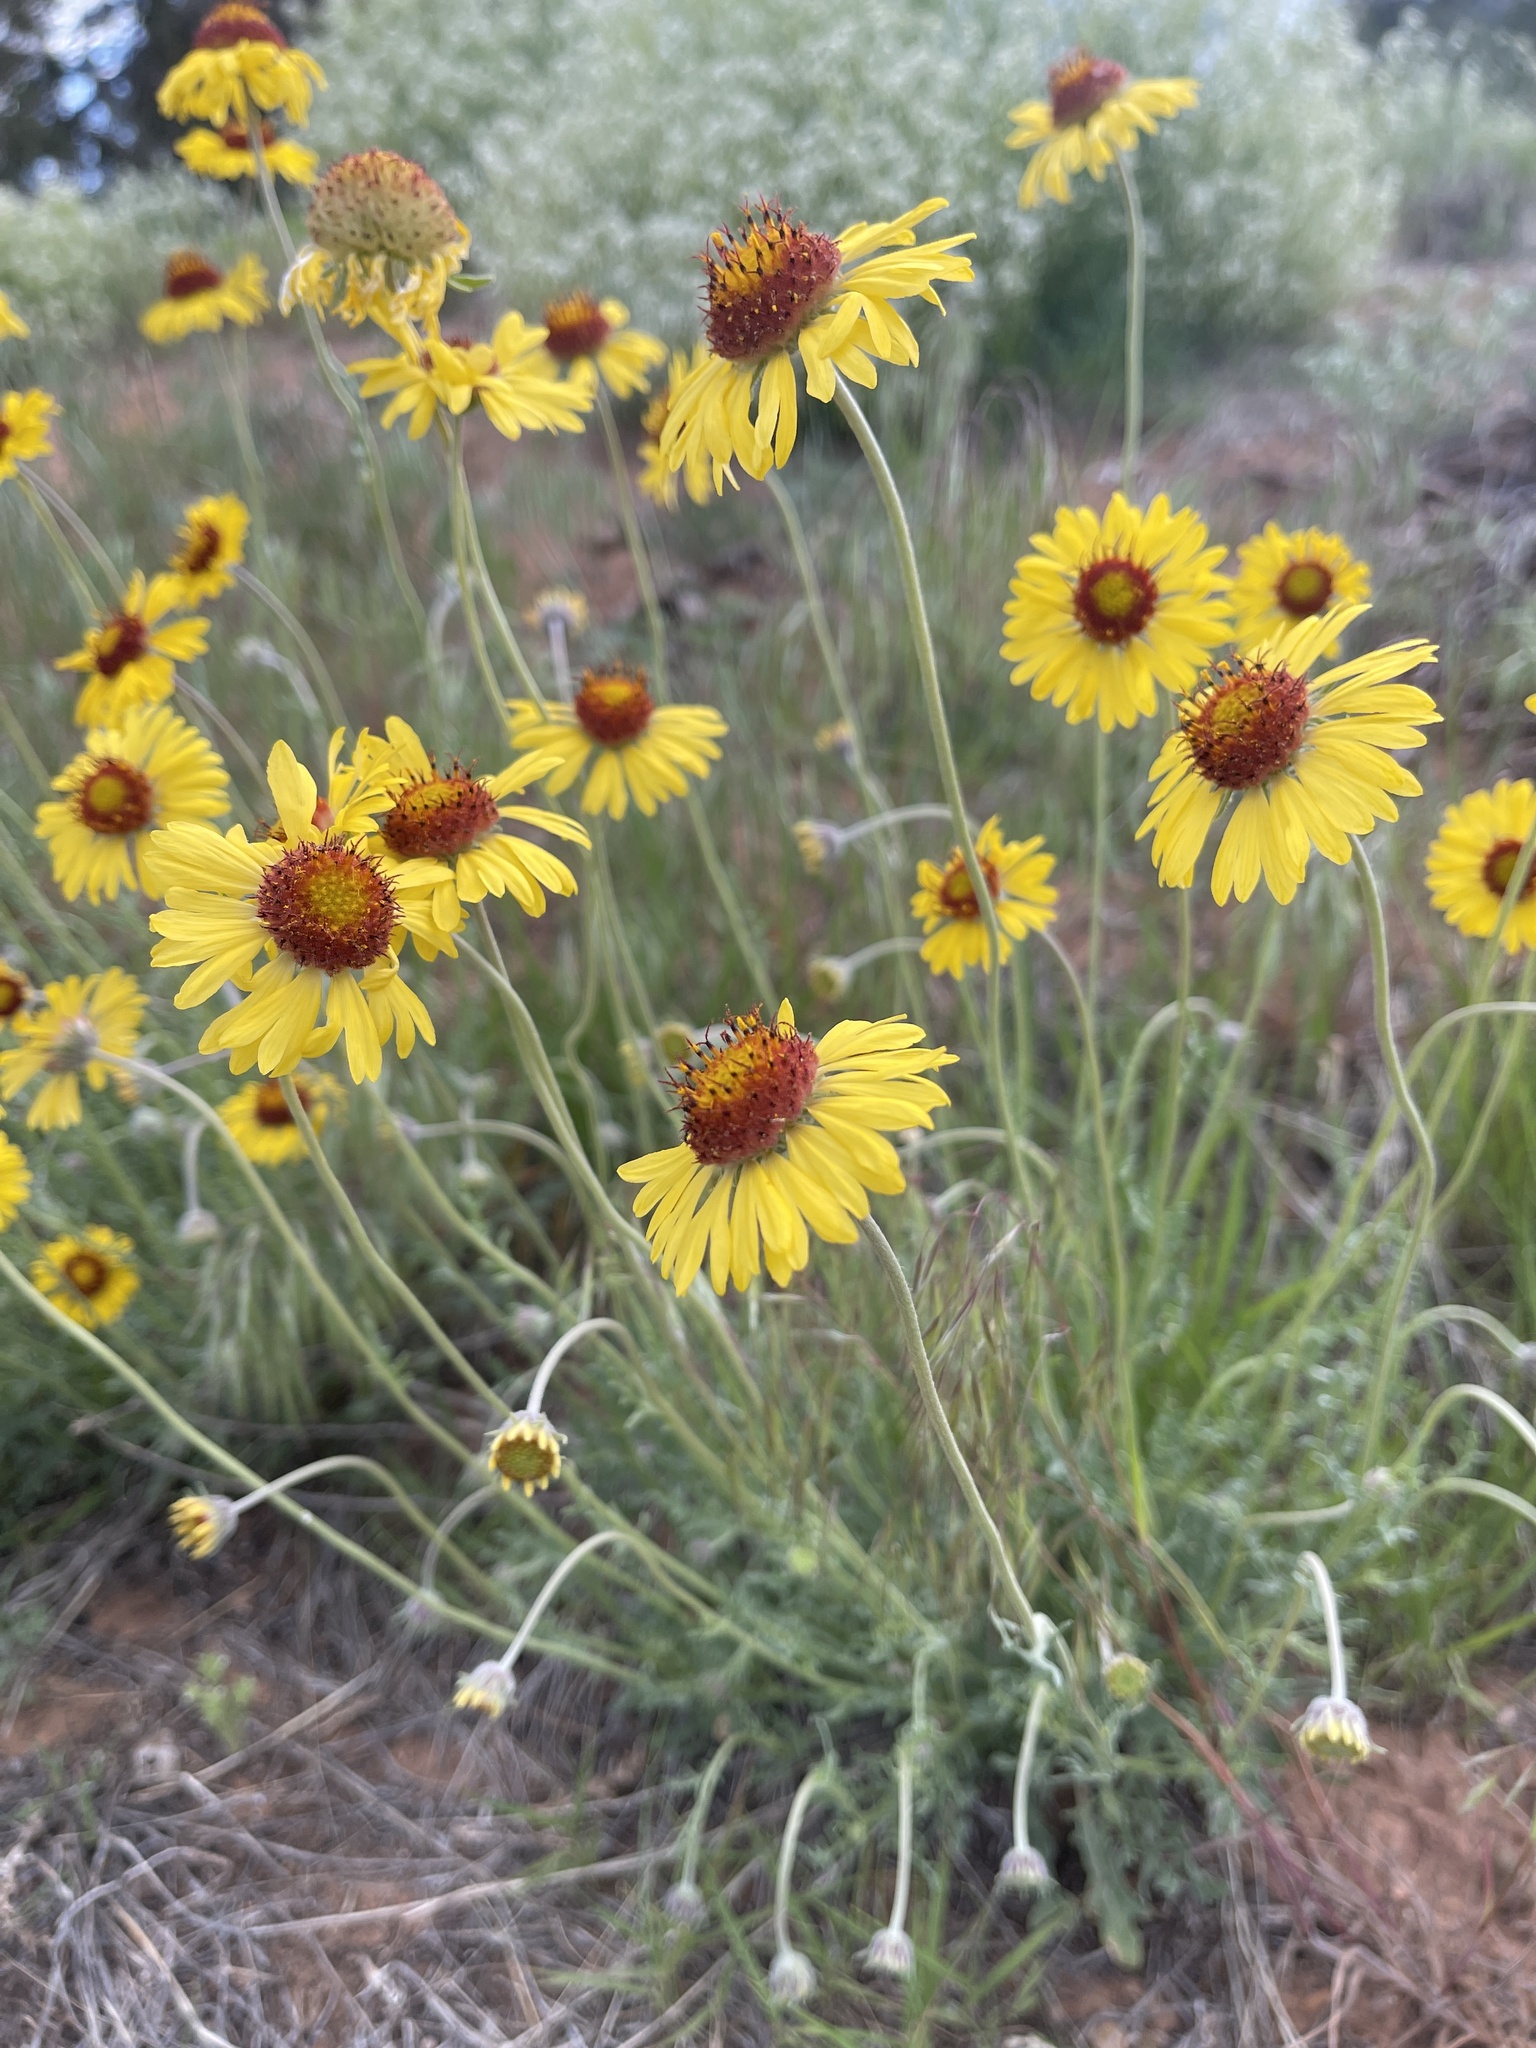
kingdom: Plantae
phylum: Tracheophyta
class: Magnoliopsida
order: Asterales
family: Asteraceae
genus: Gaillardia
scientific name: Gaillardia pinnatifida
